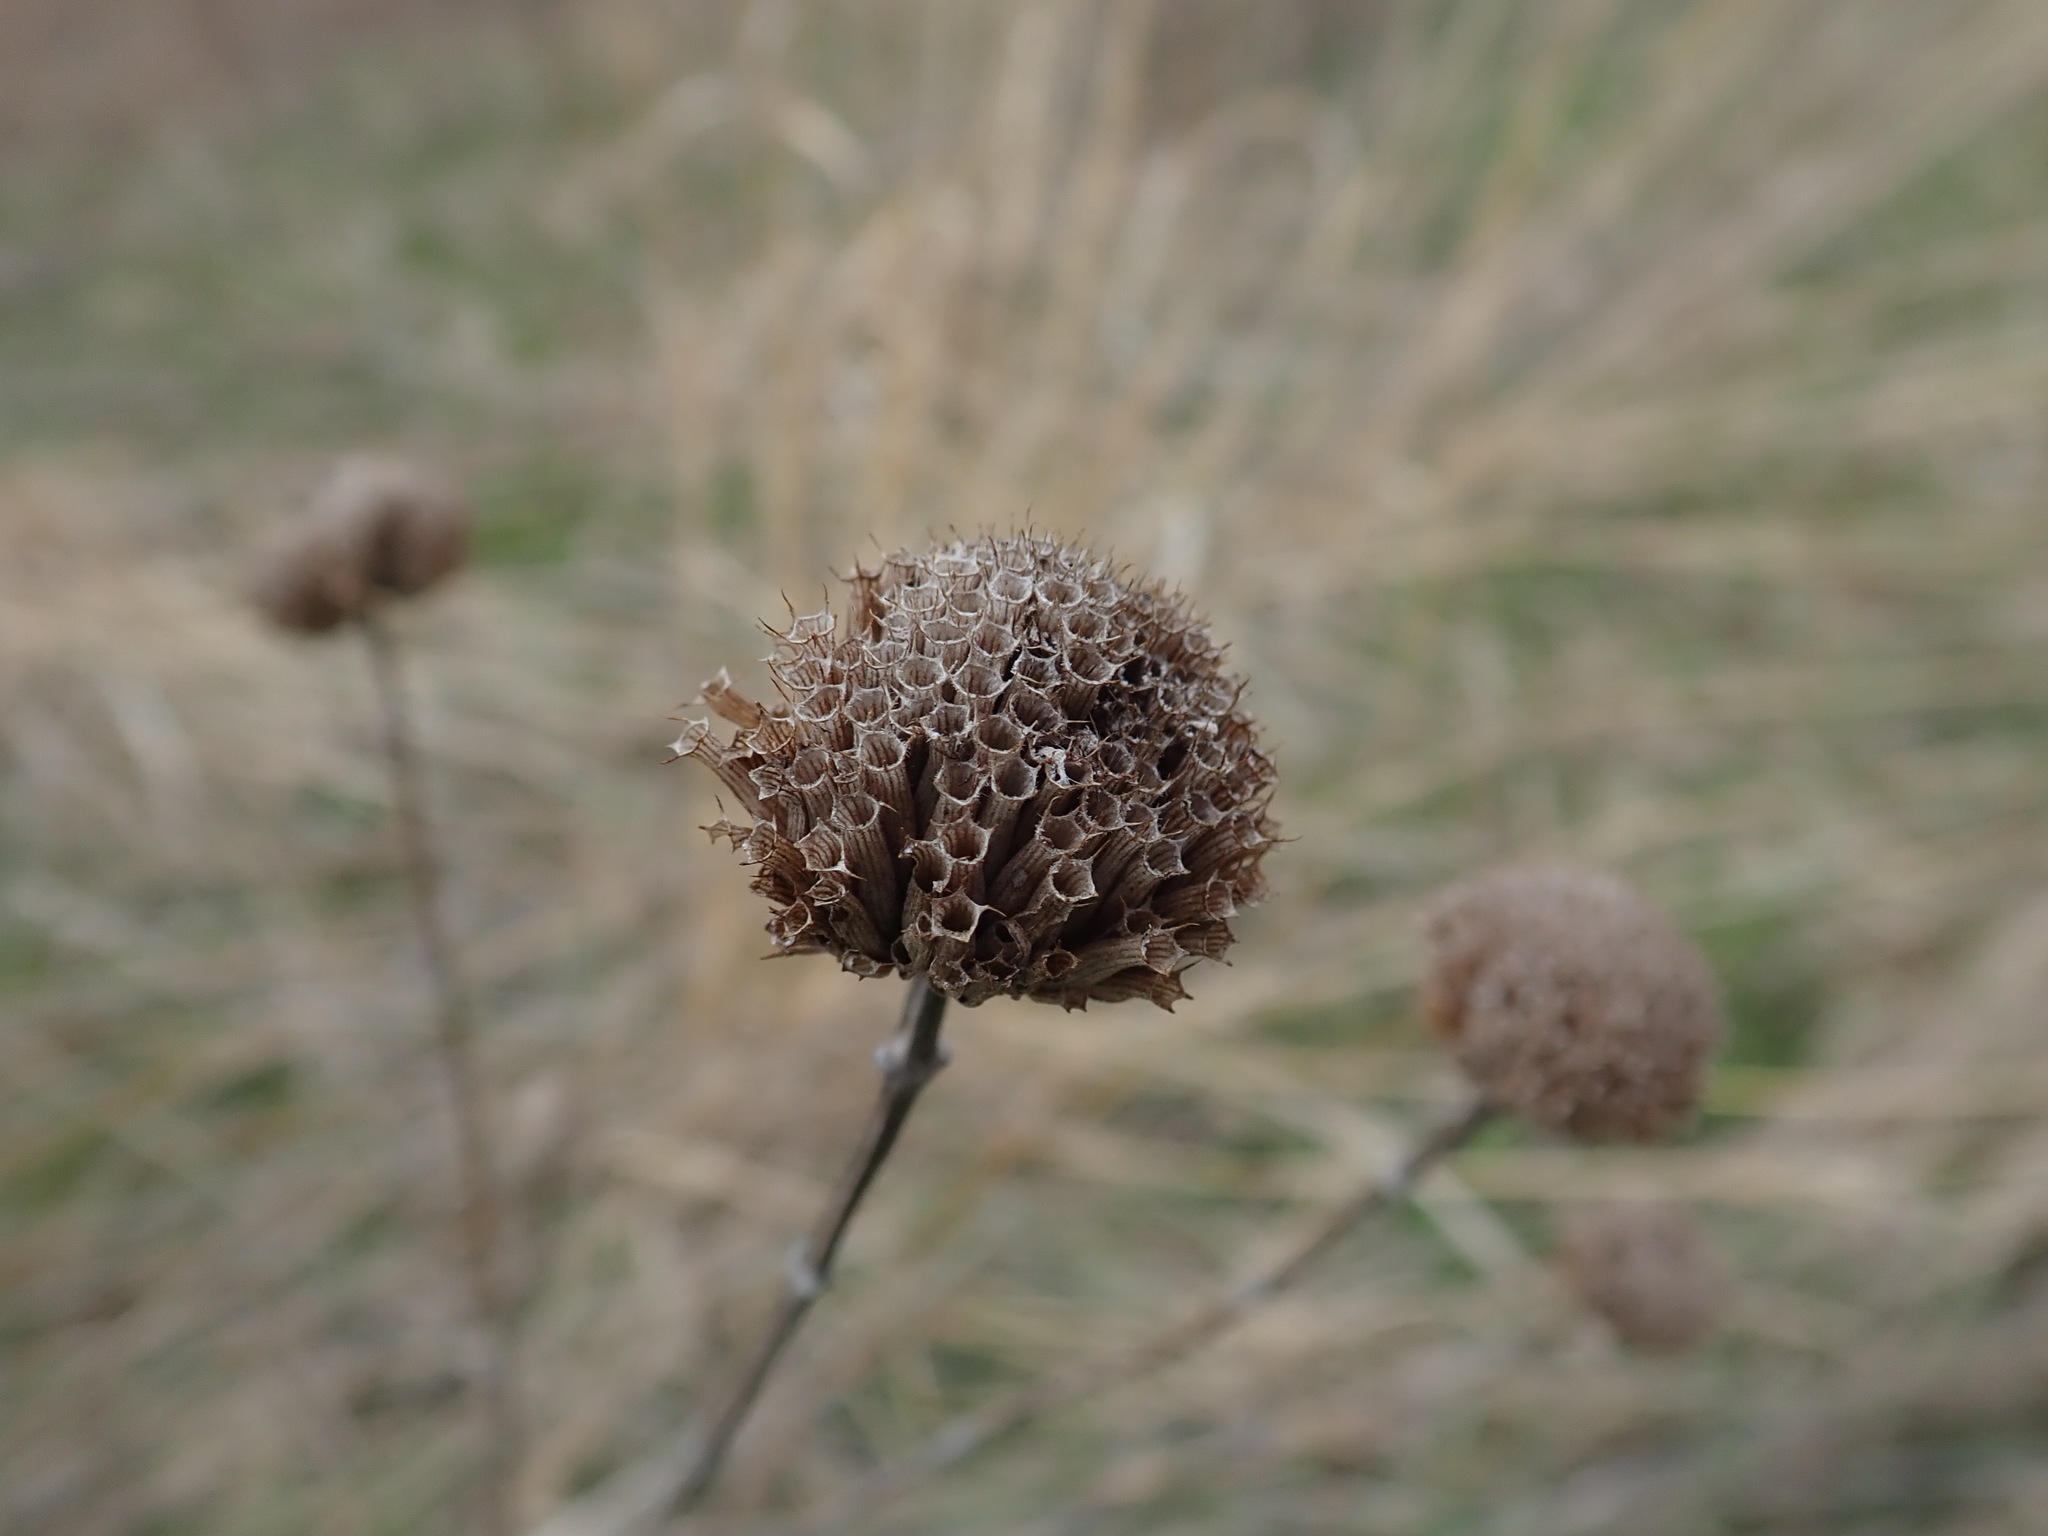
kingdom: Plantae
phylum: Tracheophyta
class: Magnoliopsida
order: Lamiales
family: Lamiaceae
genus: Monarda
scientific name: Monarda fistulosa
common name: Purple beebalm
